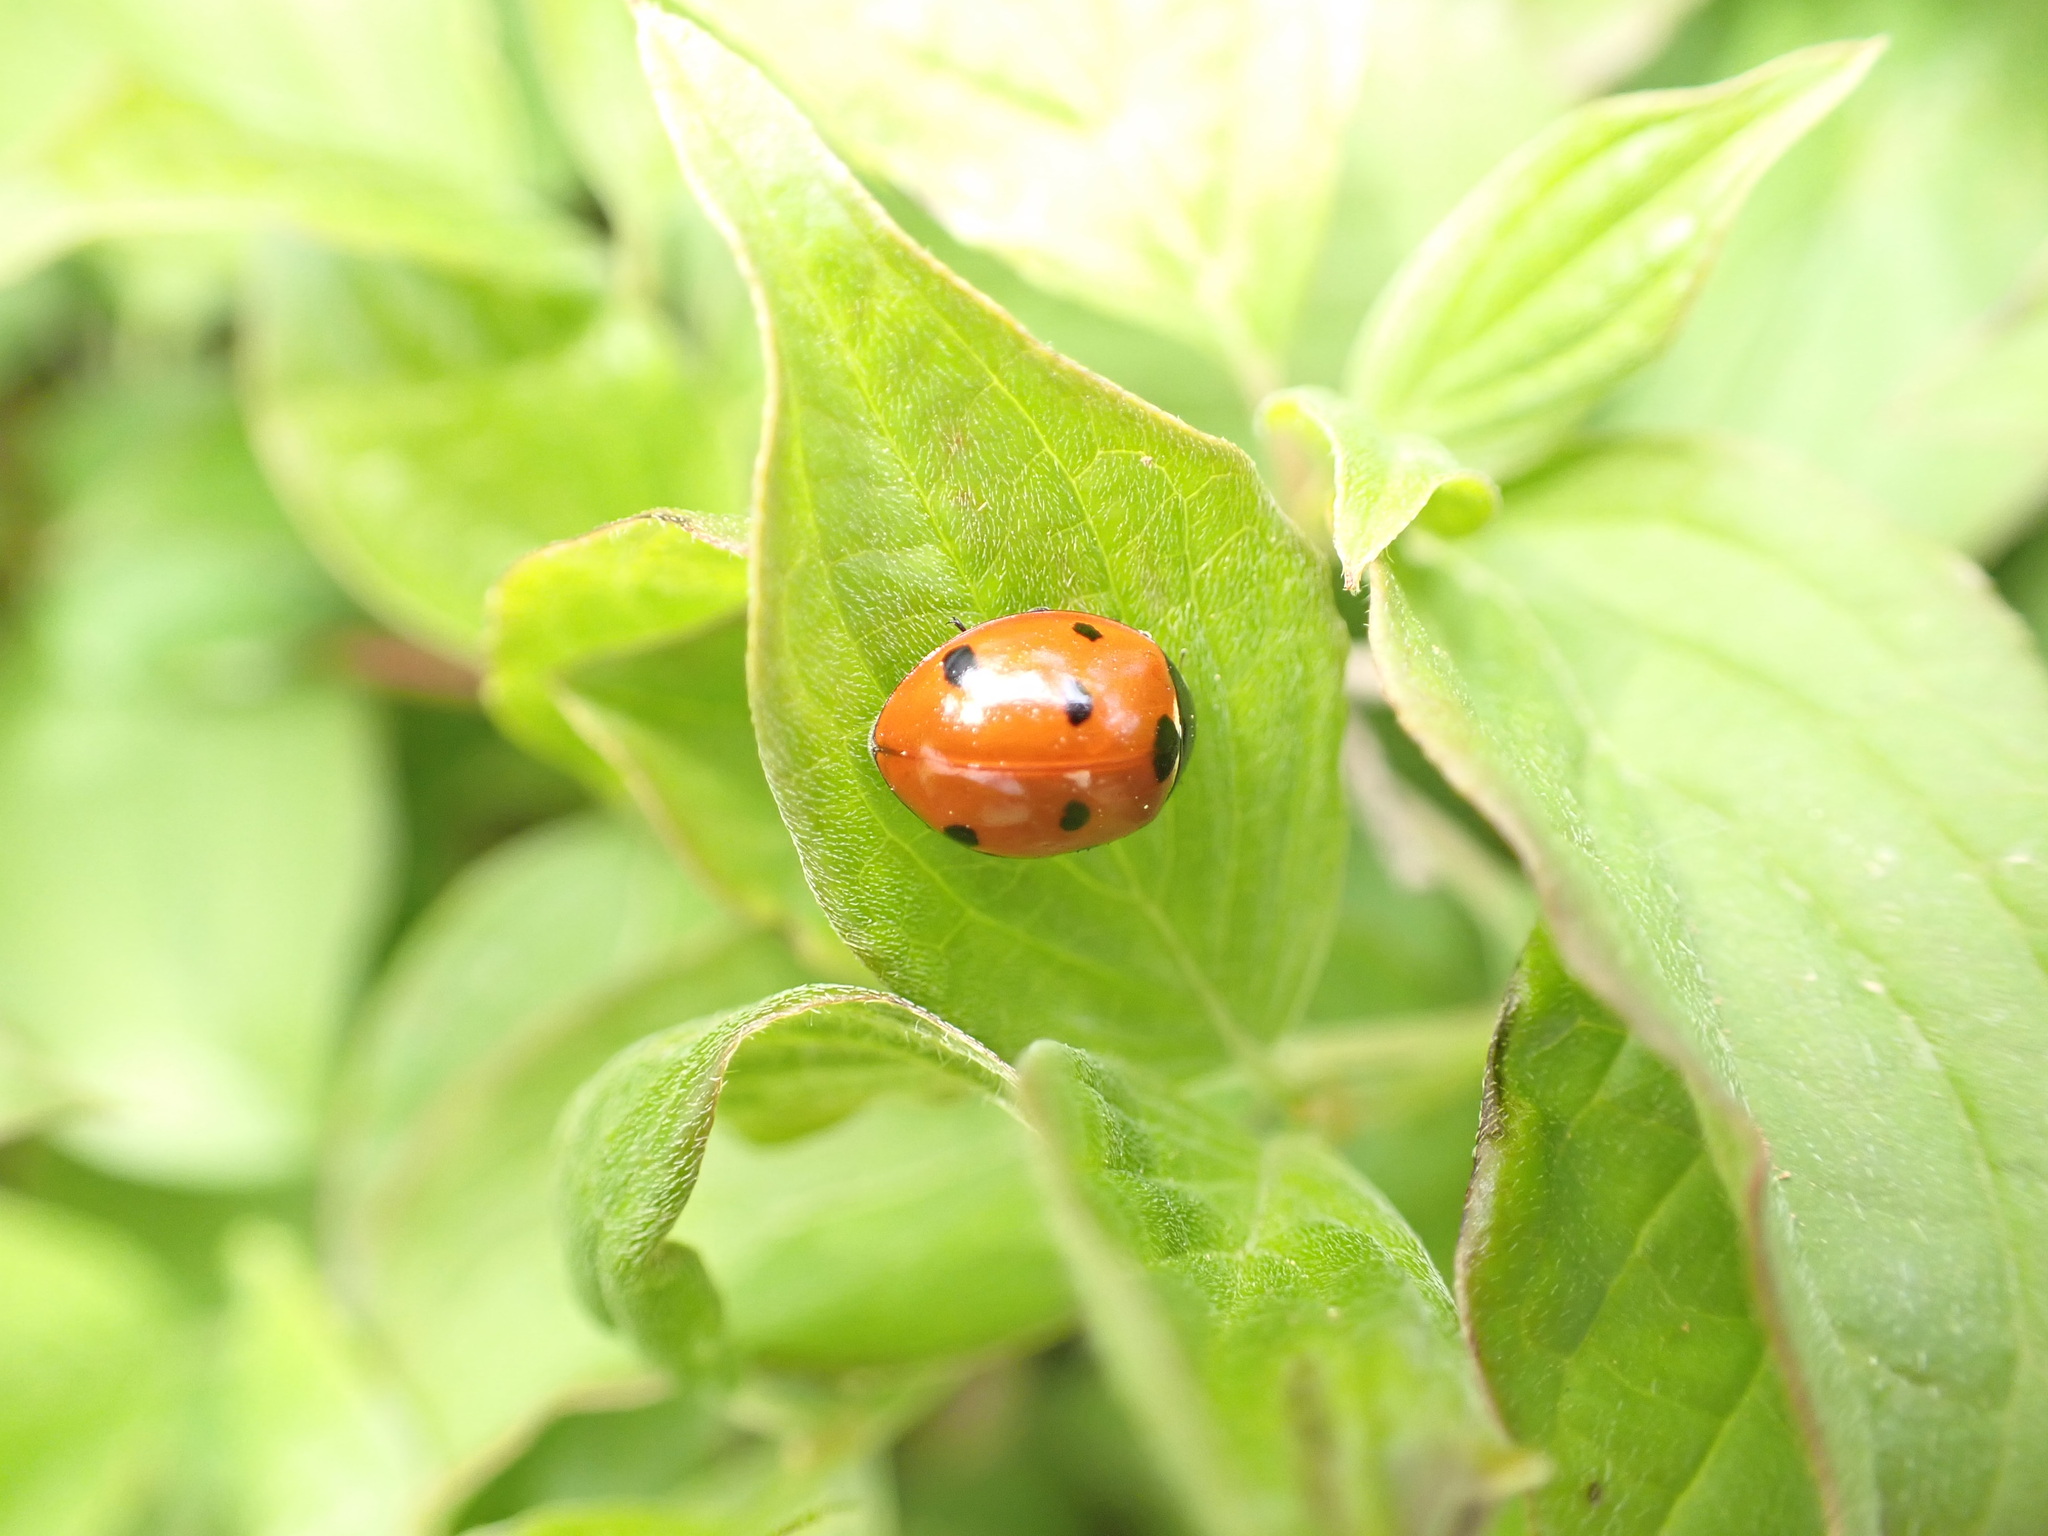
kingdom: Animalia
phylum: Arthropoda
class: Insecta
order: Coleoptera
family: Coccinellidae
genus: Coccinella
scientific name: Coccinella septempunctata
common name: Sevenspotted lady beetle
